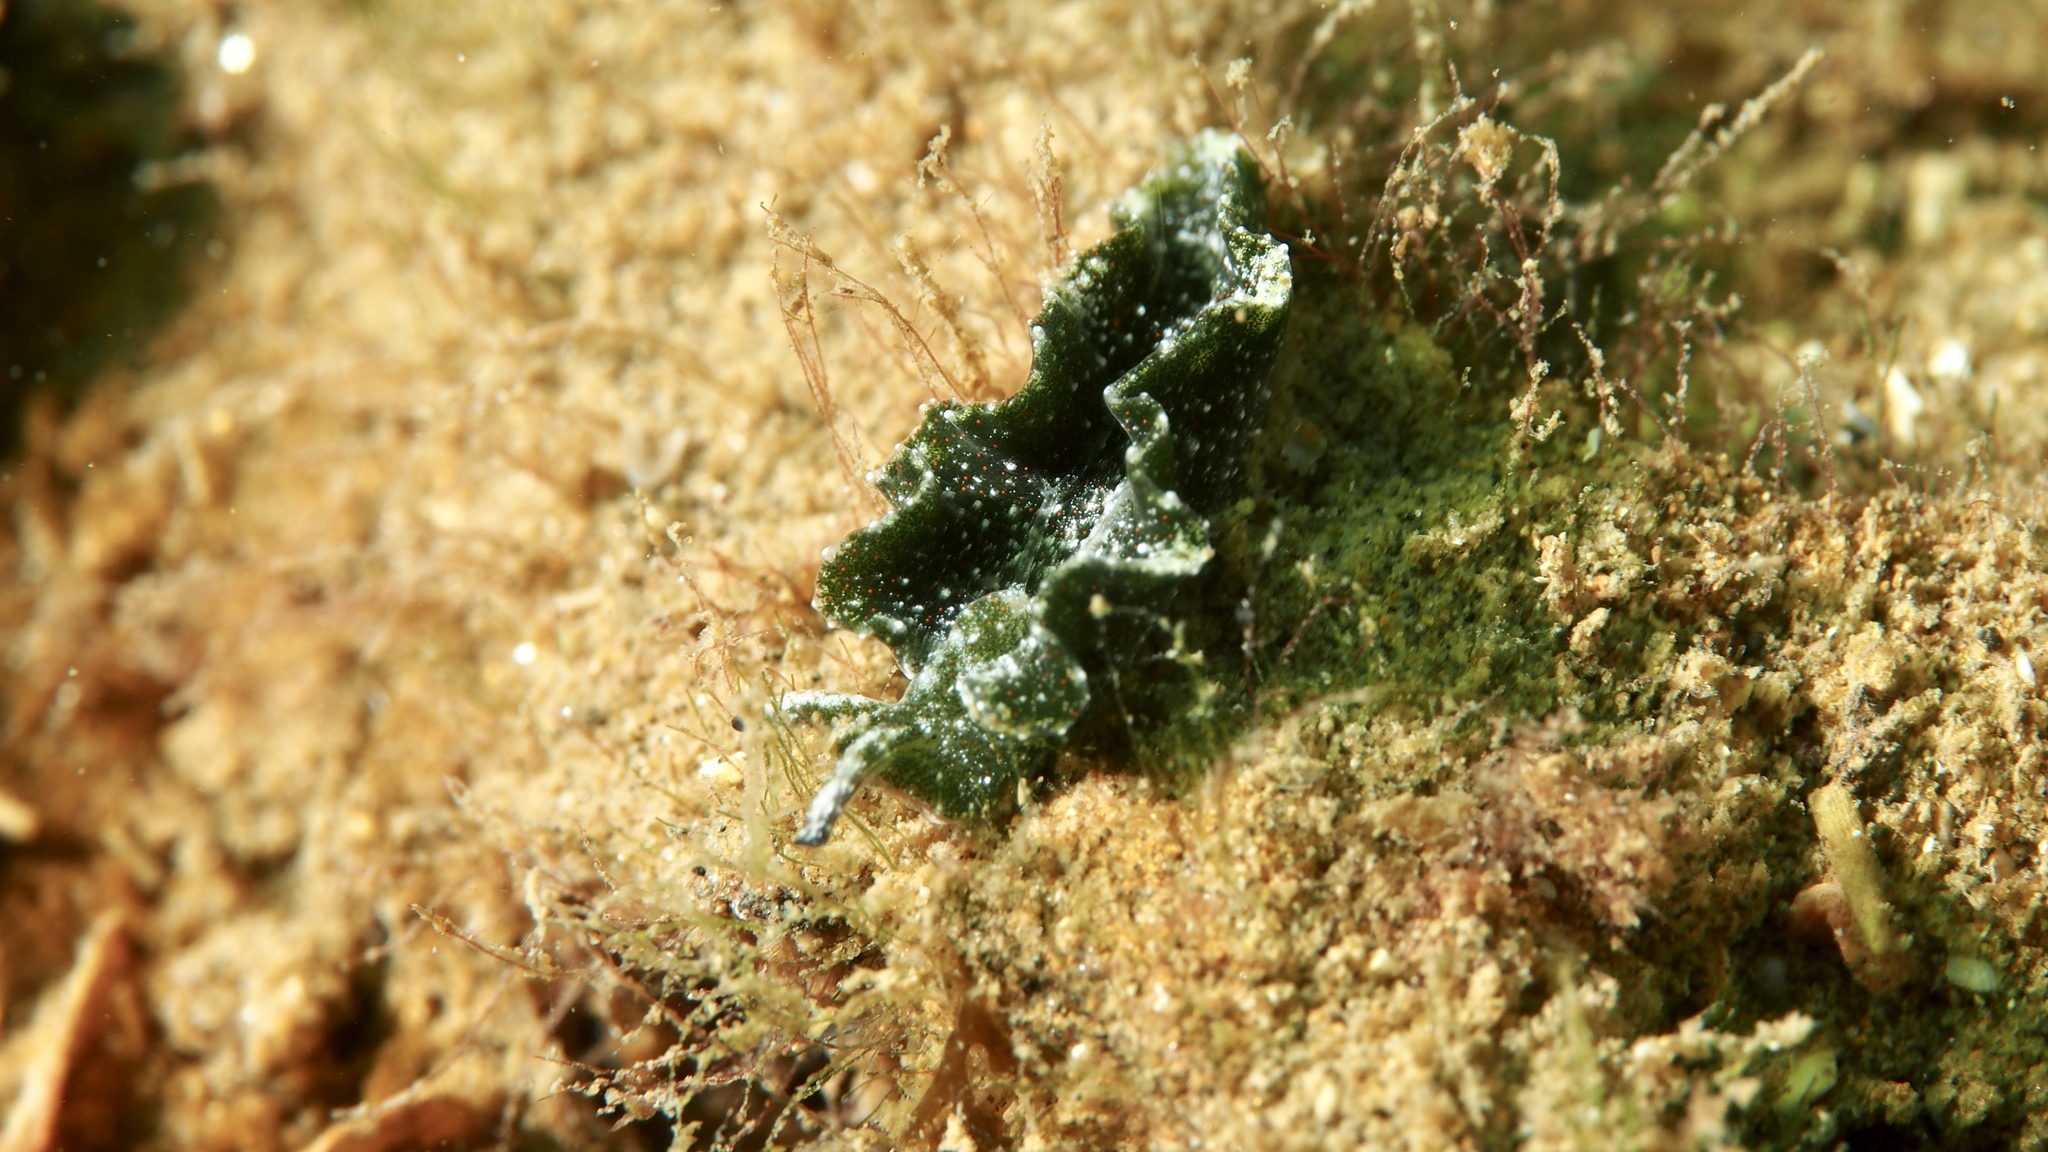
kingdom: Animalia
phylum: Mollusca
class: Gastropoda
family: Plakobranchidae
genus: Elysia
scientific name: Elysia maoria
